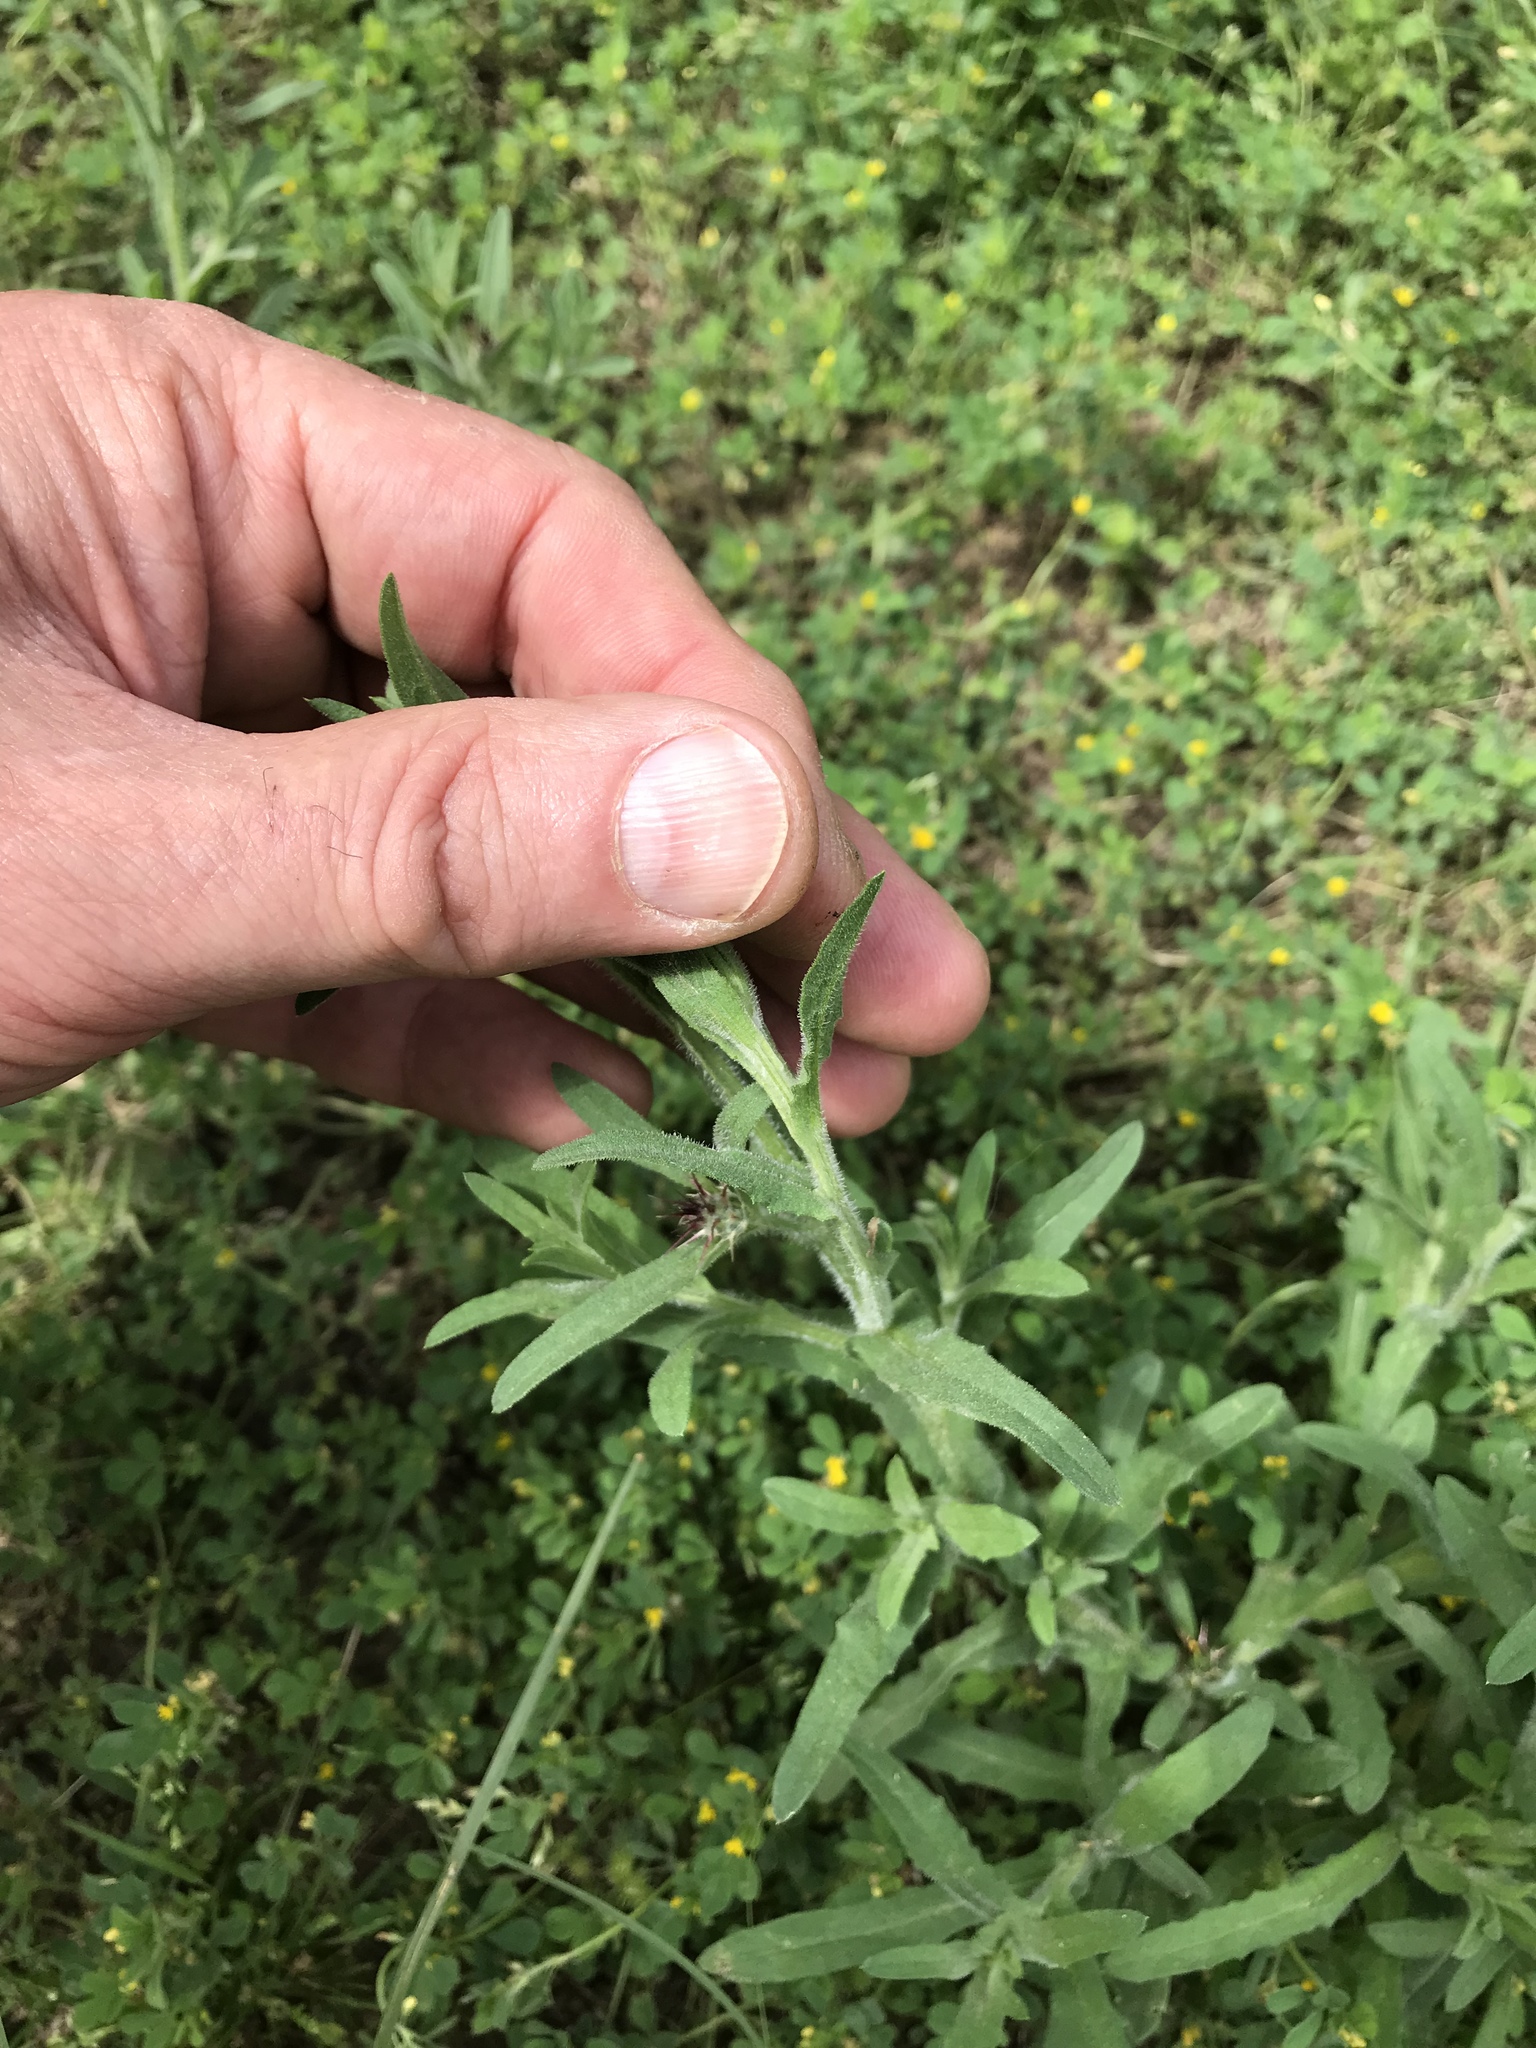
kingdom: Plantae
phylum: Tracheophyta
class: Magnoliopsida
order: Asterales
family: Asteraceae
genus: Centaurea
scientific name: Centaurea melitensis
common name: Maltese star-thistle
